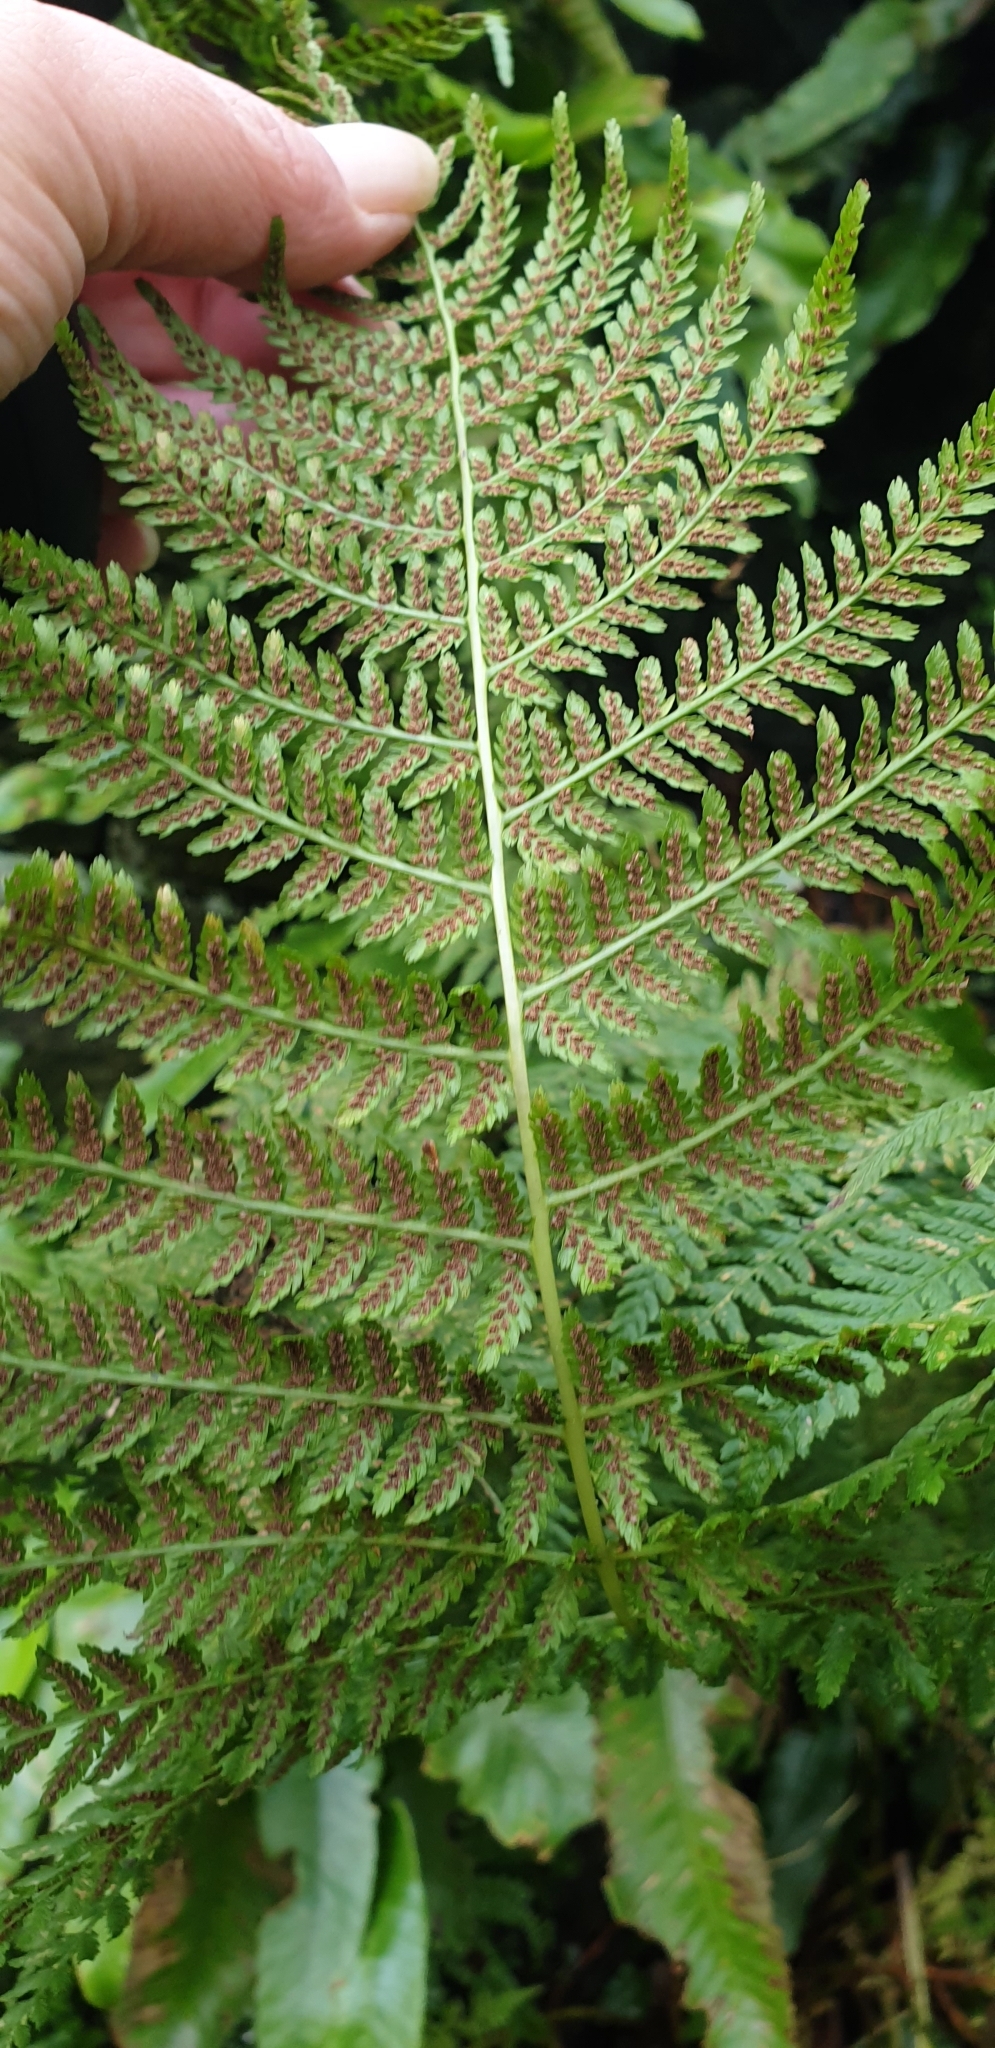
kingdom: Plantae
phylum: Tracheophyta
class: Polypodiopsida
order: Polypodiales
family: Athyriaceae
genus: Athyrium
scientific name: Athyrium filix-femina
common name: Lady fern
